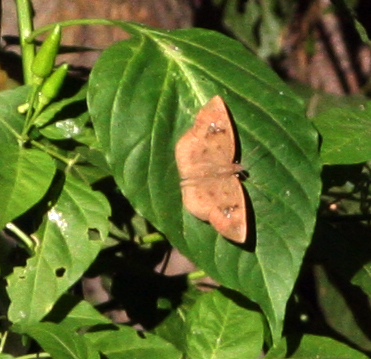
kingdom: Animalia
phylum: Arthropoda
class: Insecta
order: Lepidoptera
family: Hesperiidae
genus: Tagiades
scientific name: Tagiades japetus
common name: Pied flat
